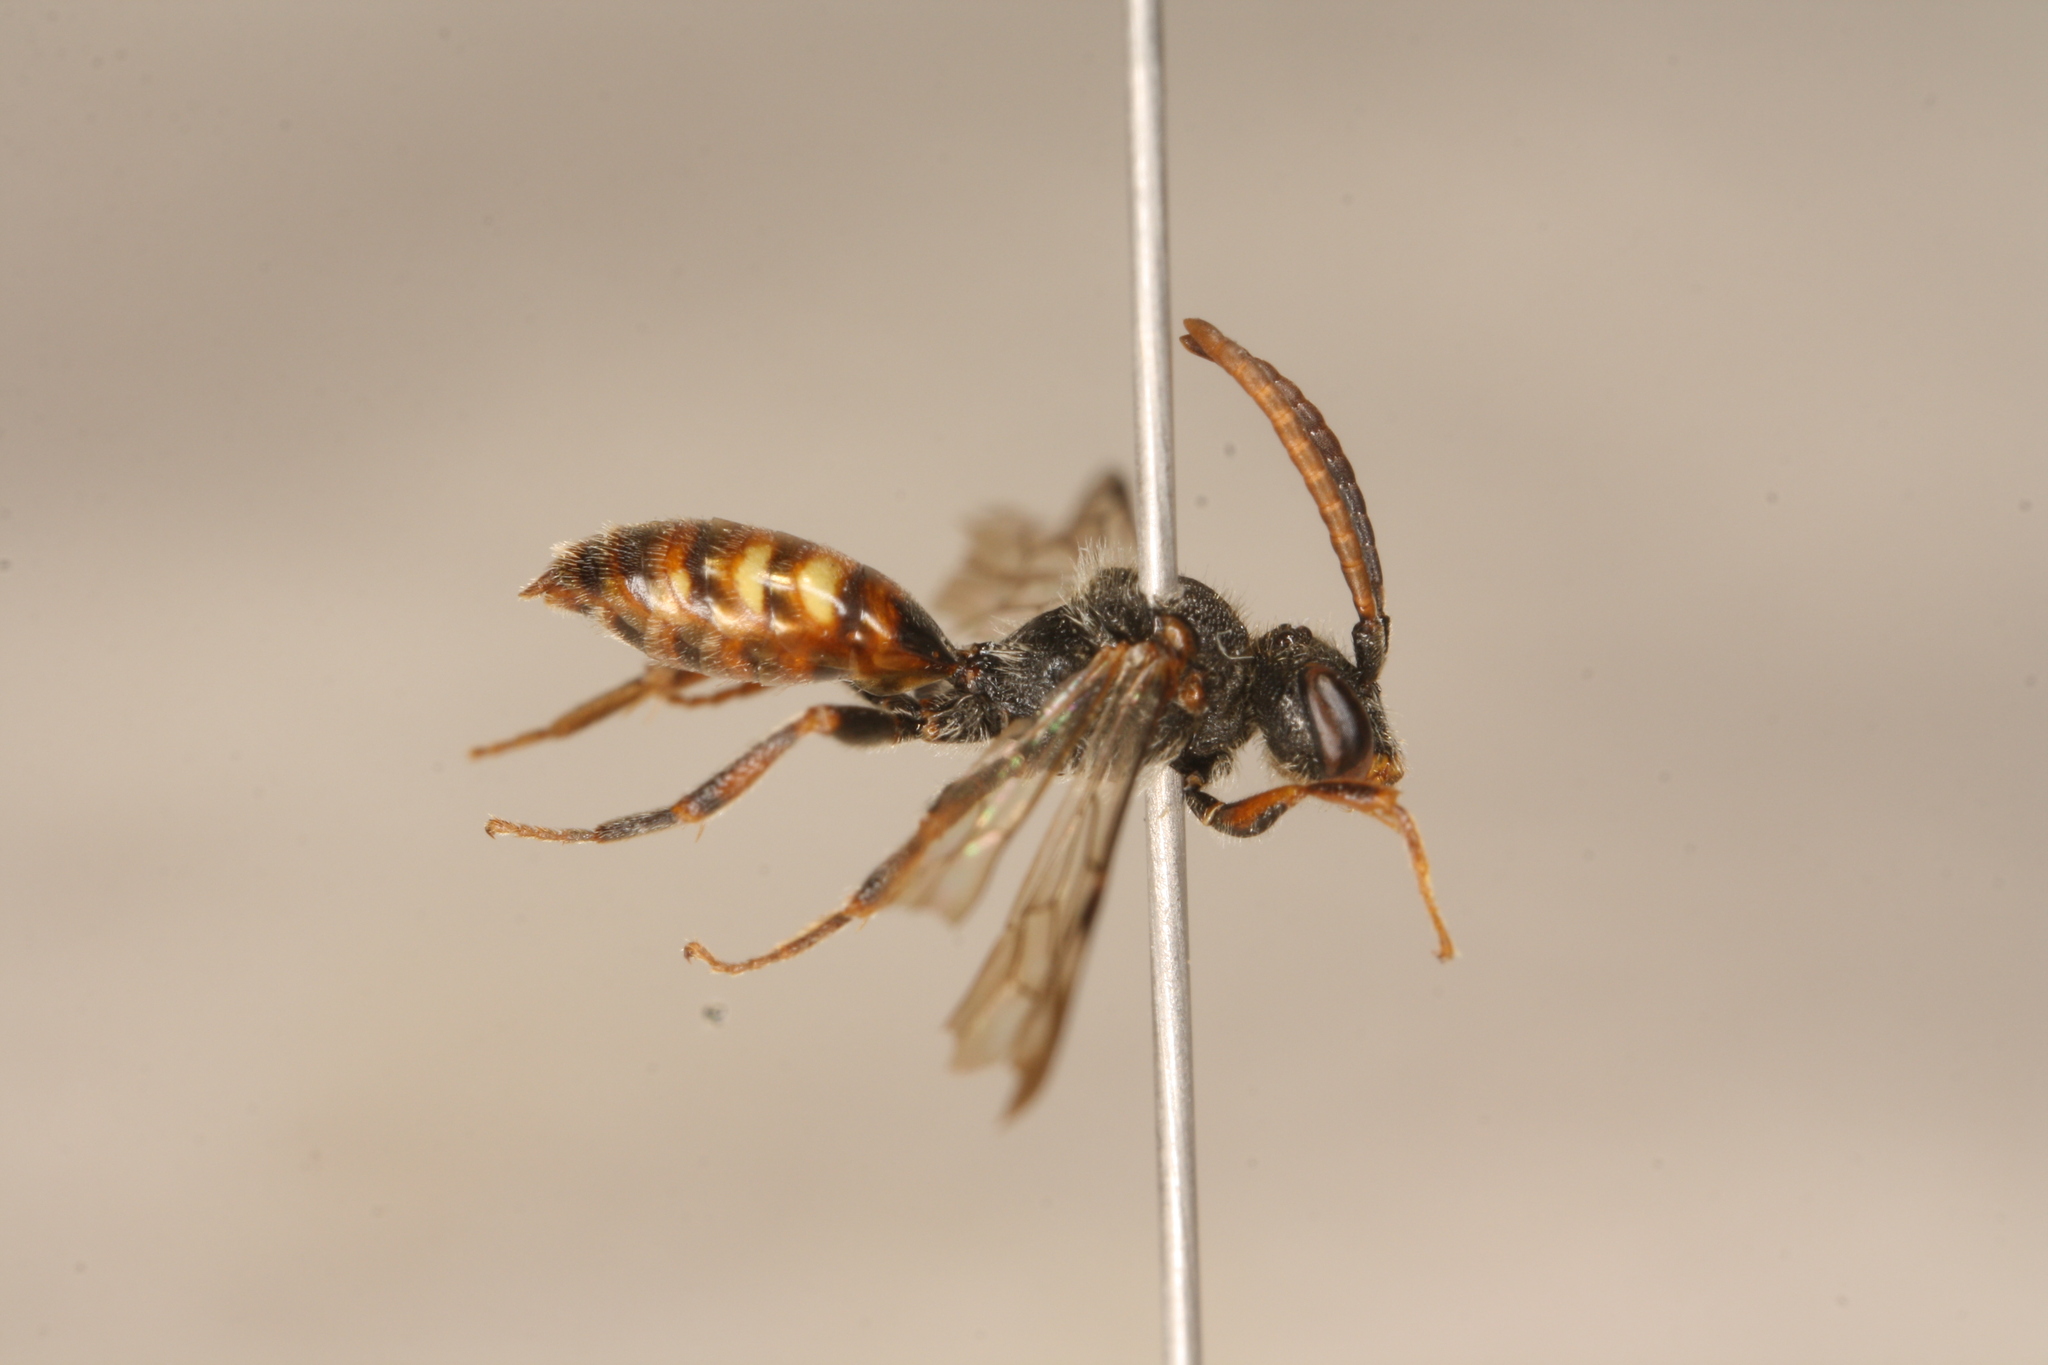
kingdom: Animalia
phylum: Arthropoda
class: Insecta
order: Hymenoptera
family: Apidae
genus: Nomada
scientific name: Nomada flavoguttata
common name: Little nomad bee
